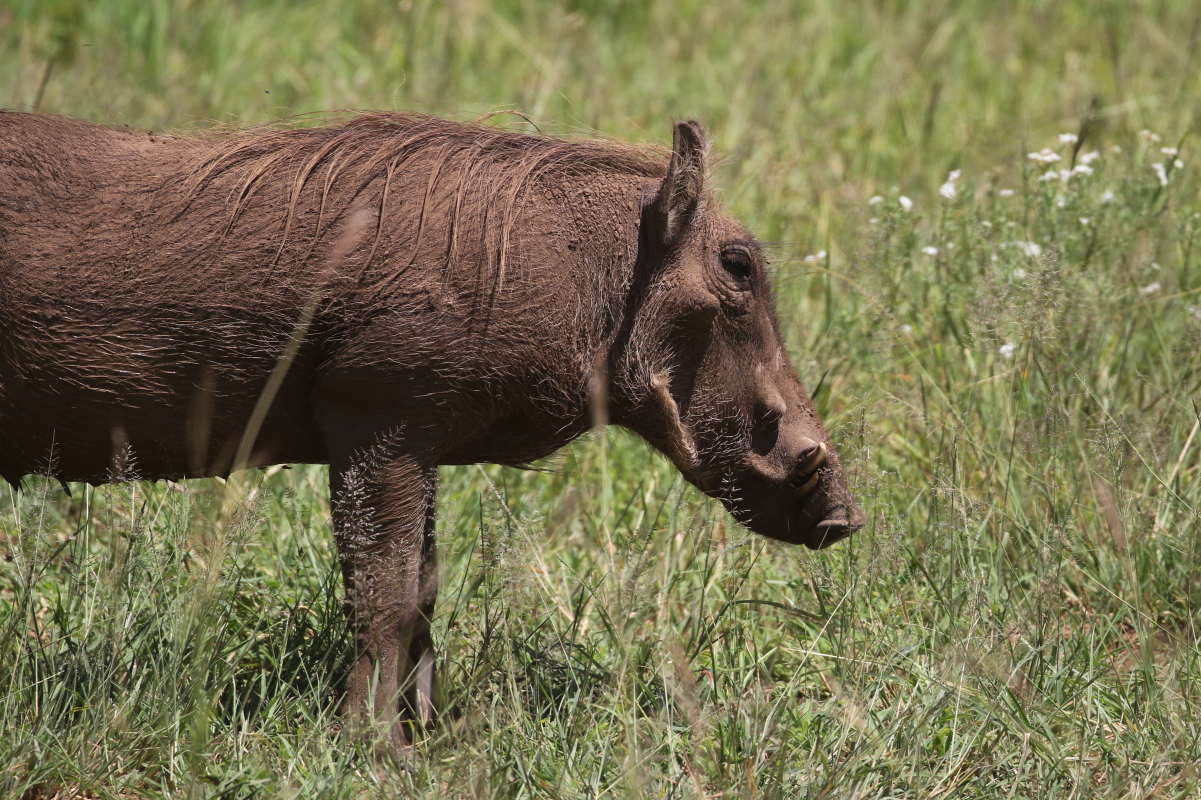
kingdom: Animalia
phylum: Chordata
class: Mammalia
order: Artiodactyla
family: Suidae
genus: Phacochoerus
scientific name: Phacochoerus africanus
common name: Common warthog
